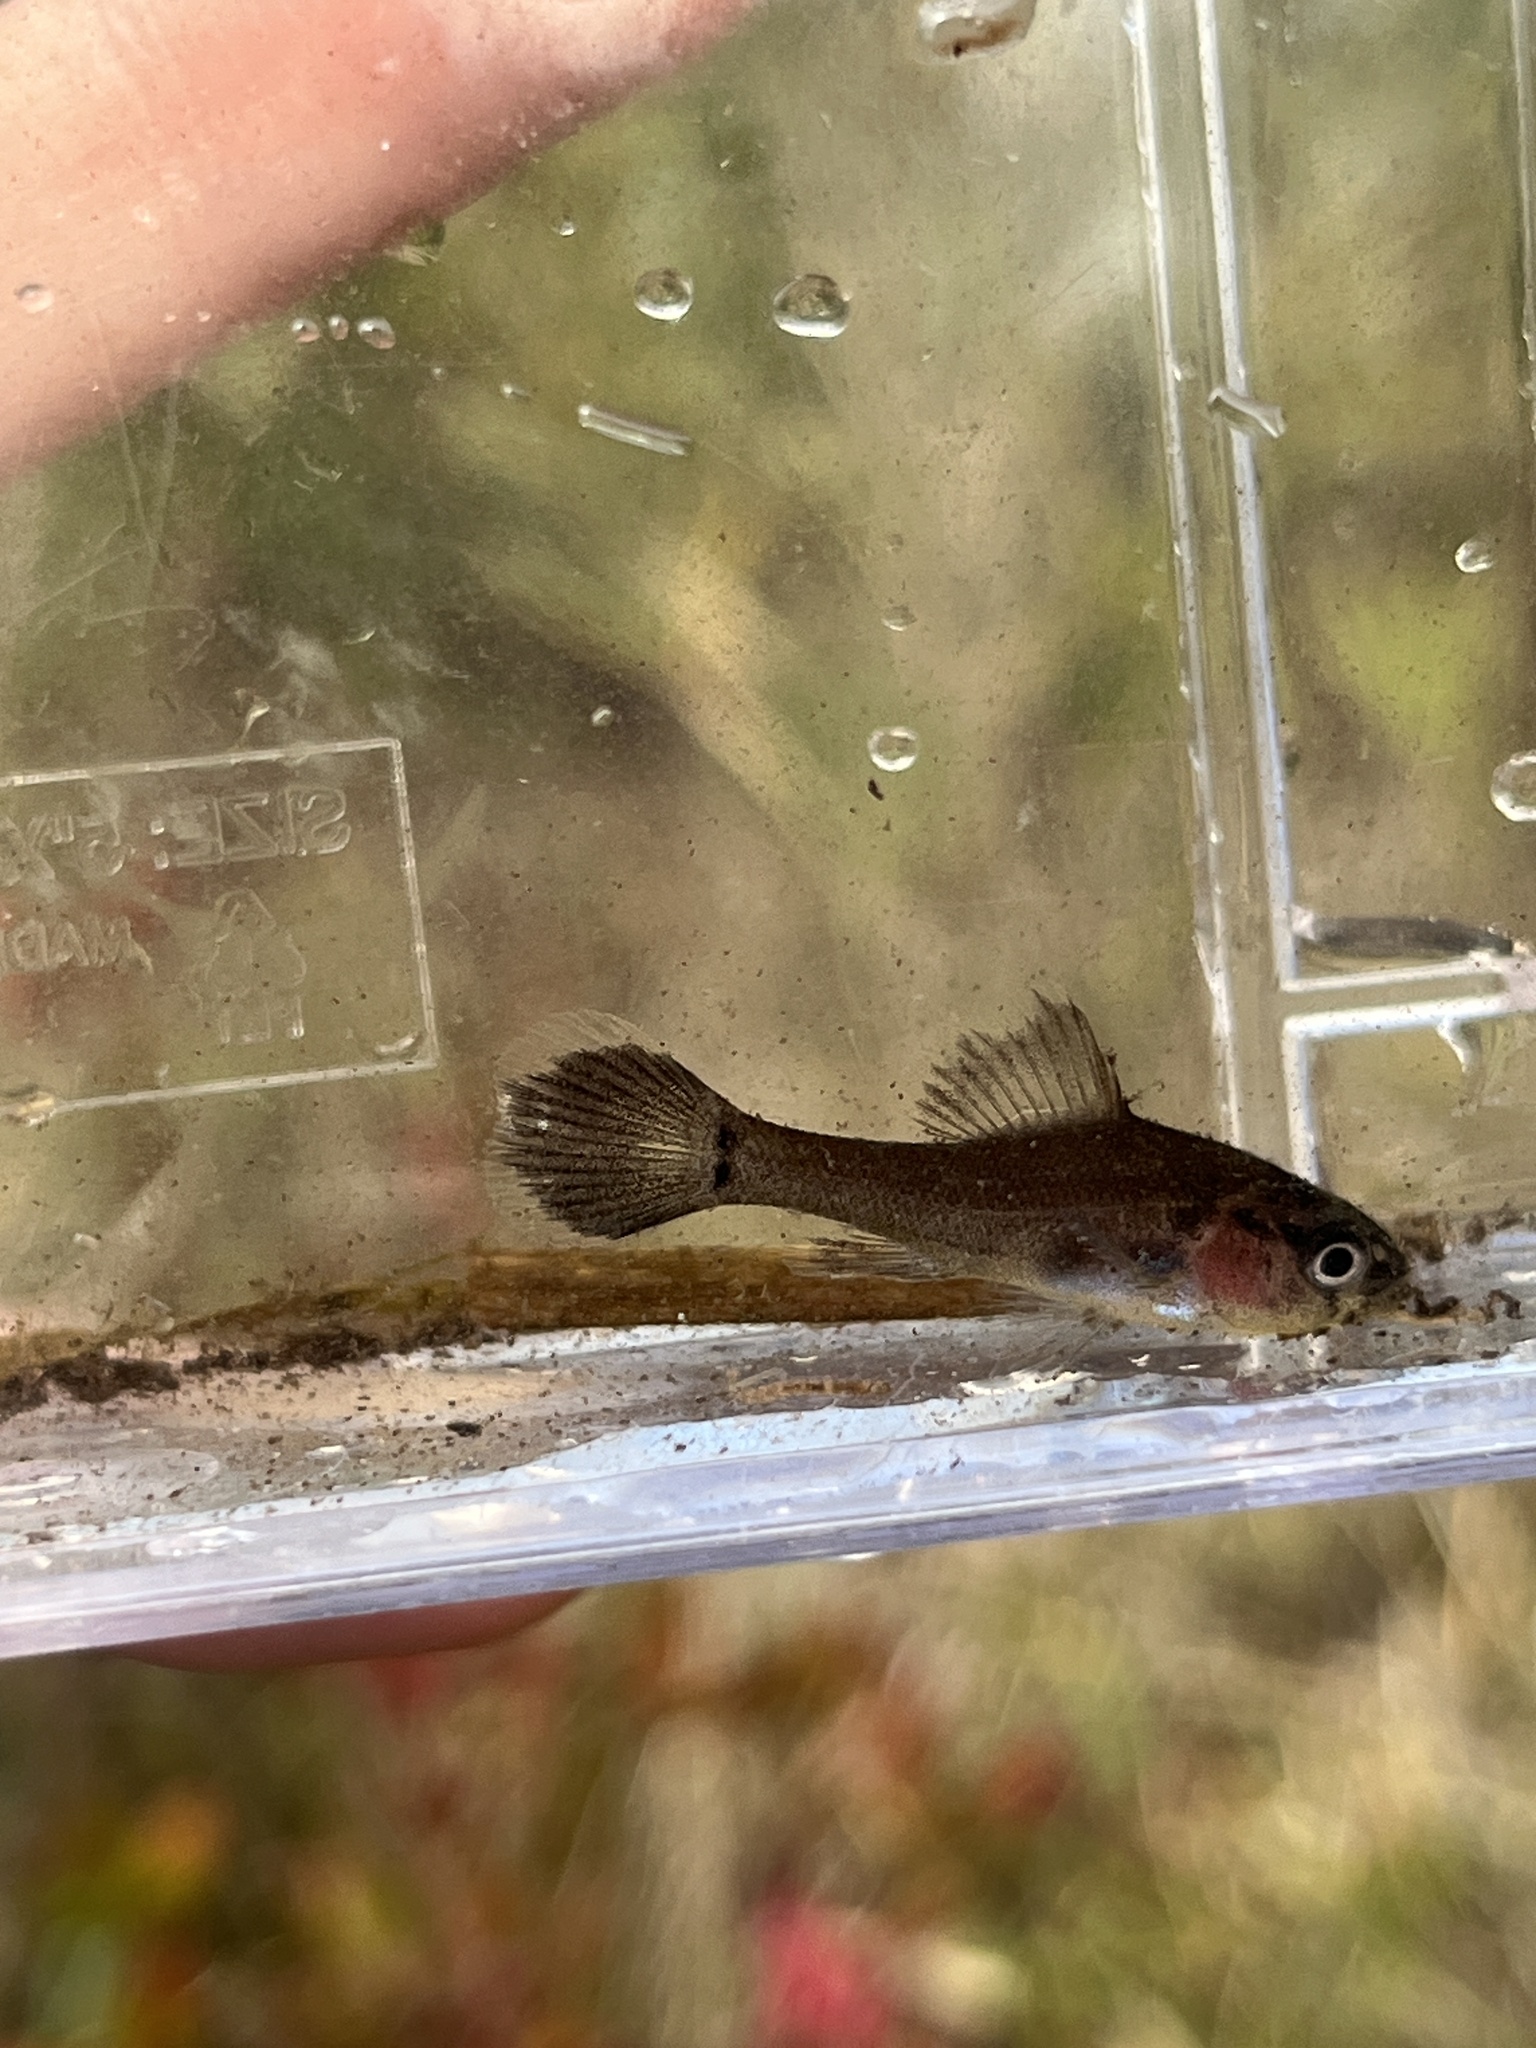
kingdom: Animalia
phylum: Chordata
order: Percopsiformes
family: Aphredoderidae
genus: Aphredoderus
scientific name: Aphredoderus
